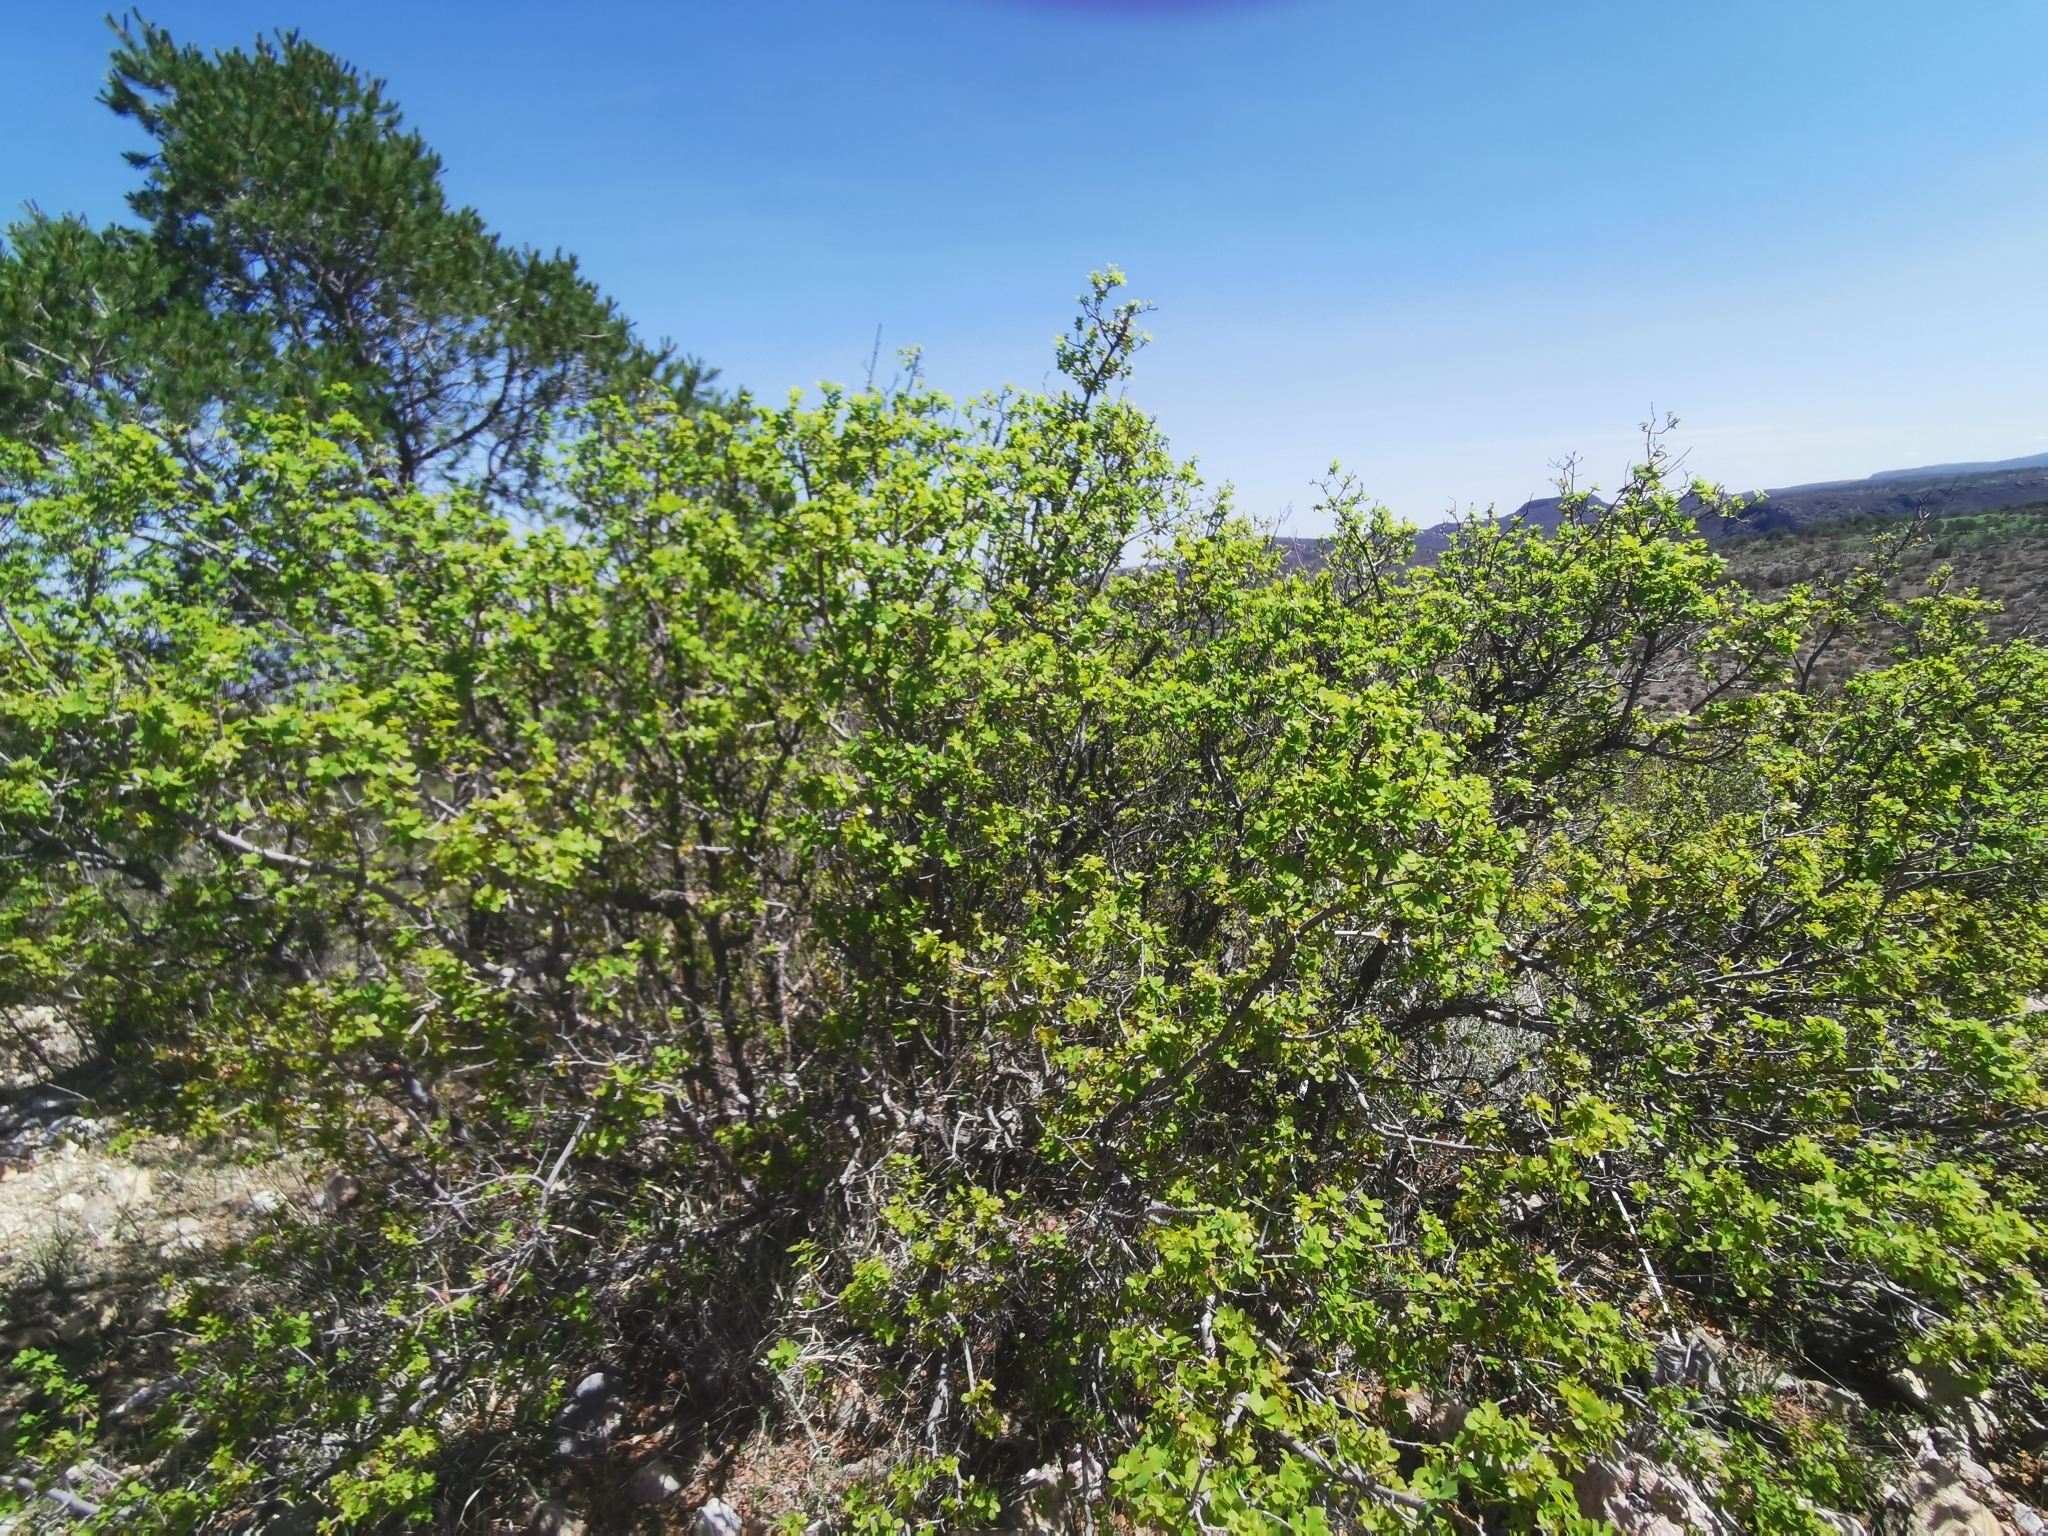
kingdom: Plantae
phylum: Tracheophyta
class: Magnoliopsida
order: Fagales
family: Fagaceae
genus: Quercus
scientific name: Quercus depressipes
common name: Davis mountain oak
